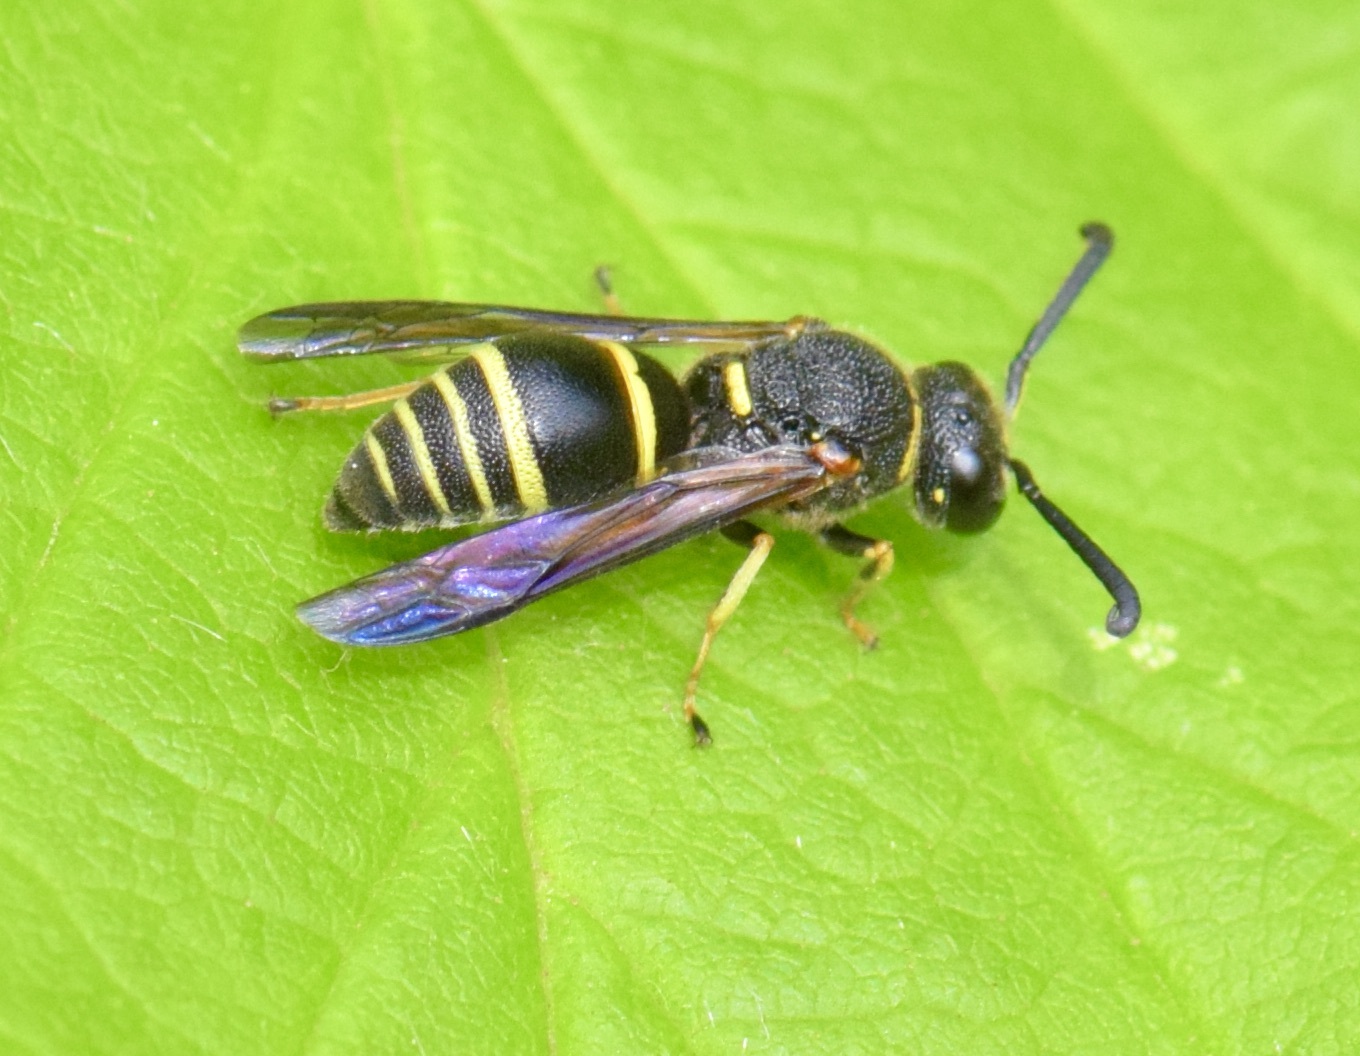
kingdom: Animalia
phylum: Arthropoda
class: Insecta
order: Hymenoptera
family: Eumenidae
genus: Euodynerus
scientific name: Euodynerus foraminatus
